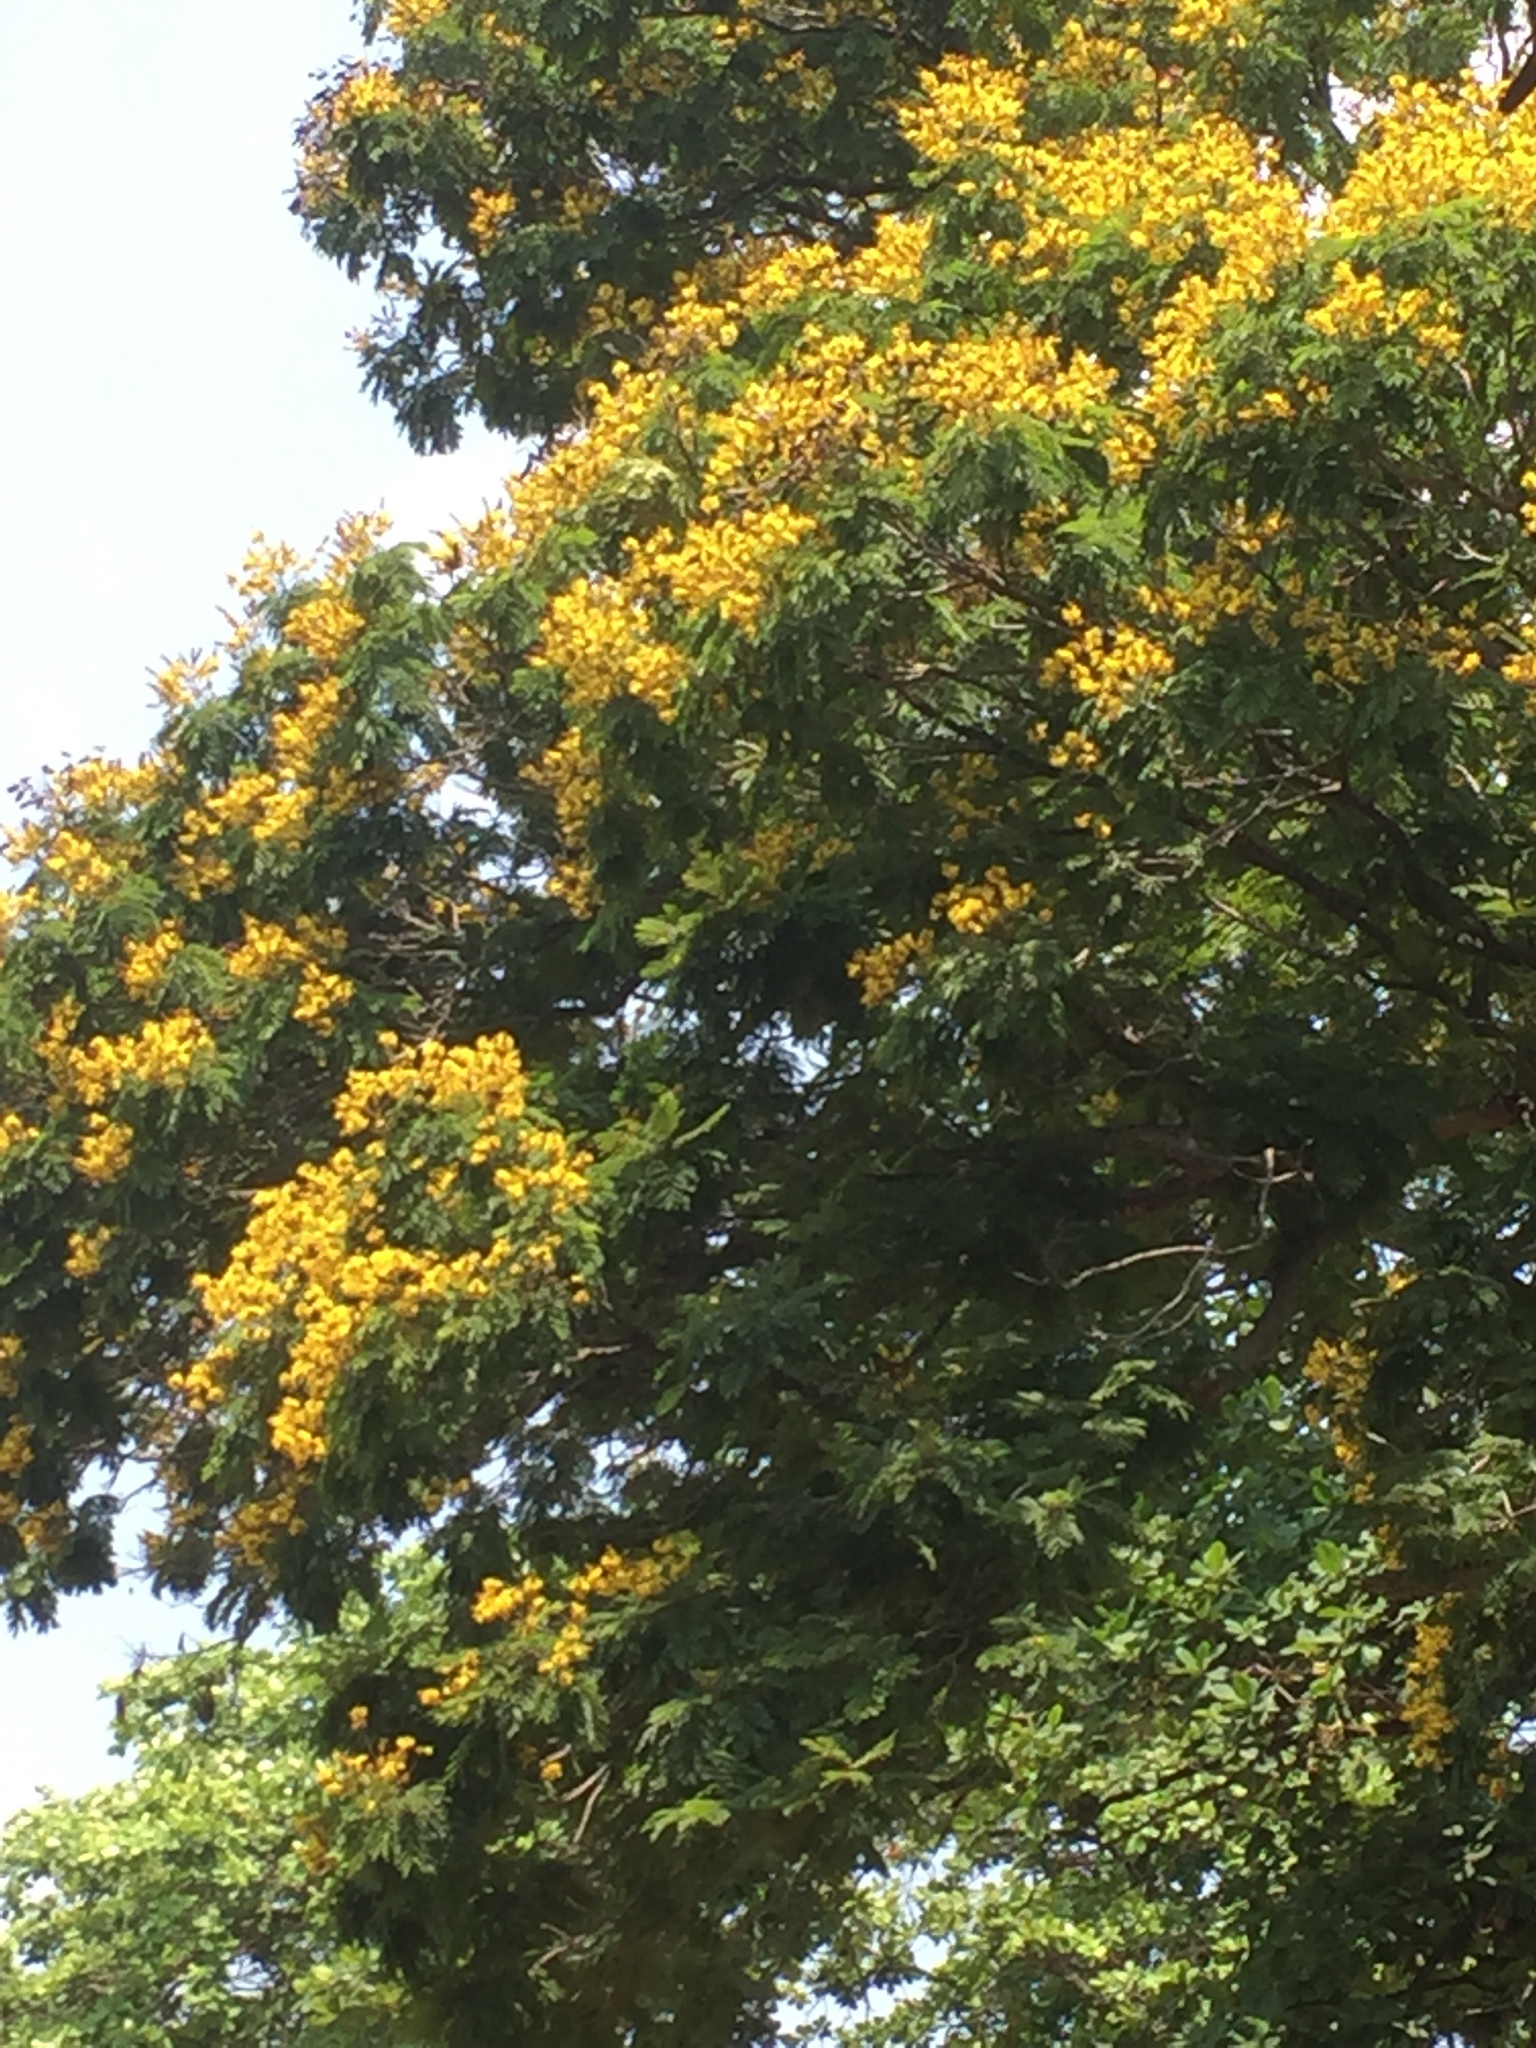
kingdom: Plantae
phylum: Tracheophyta
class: Magnoliopsida
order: Fabales
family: Fabaceae
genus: Peltophorum
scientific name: Peltophorum pterocarpum
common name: Yellow flame
